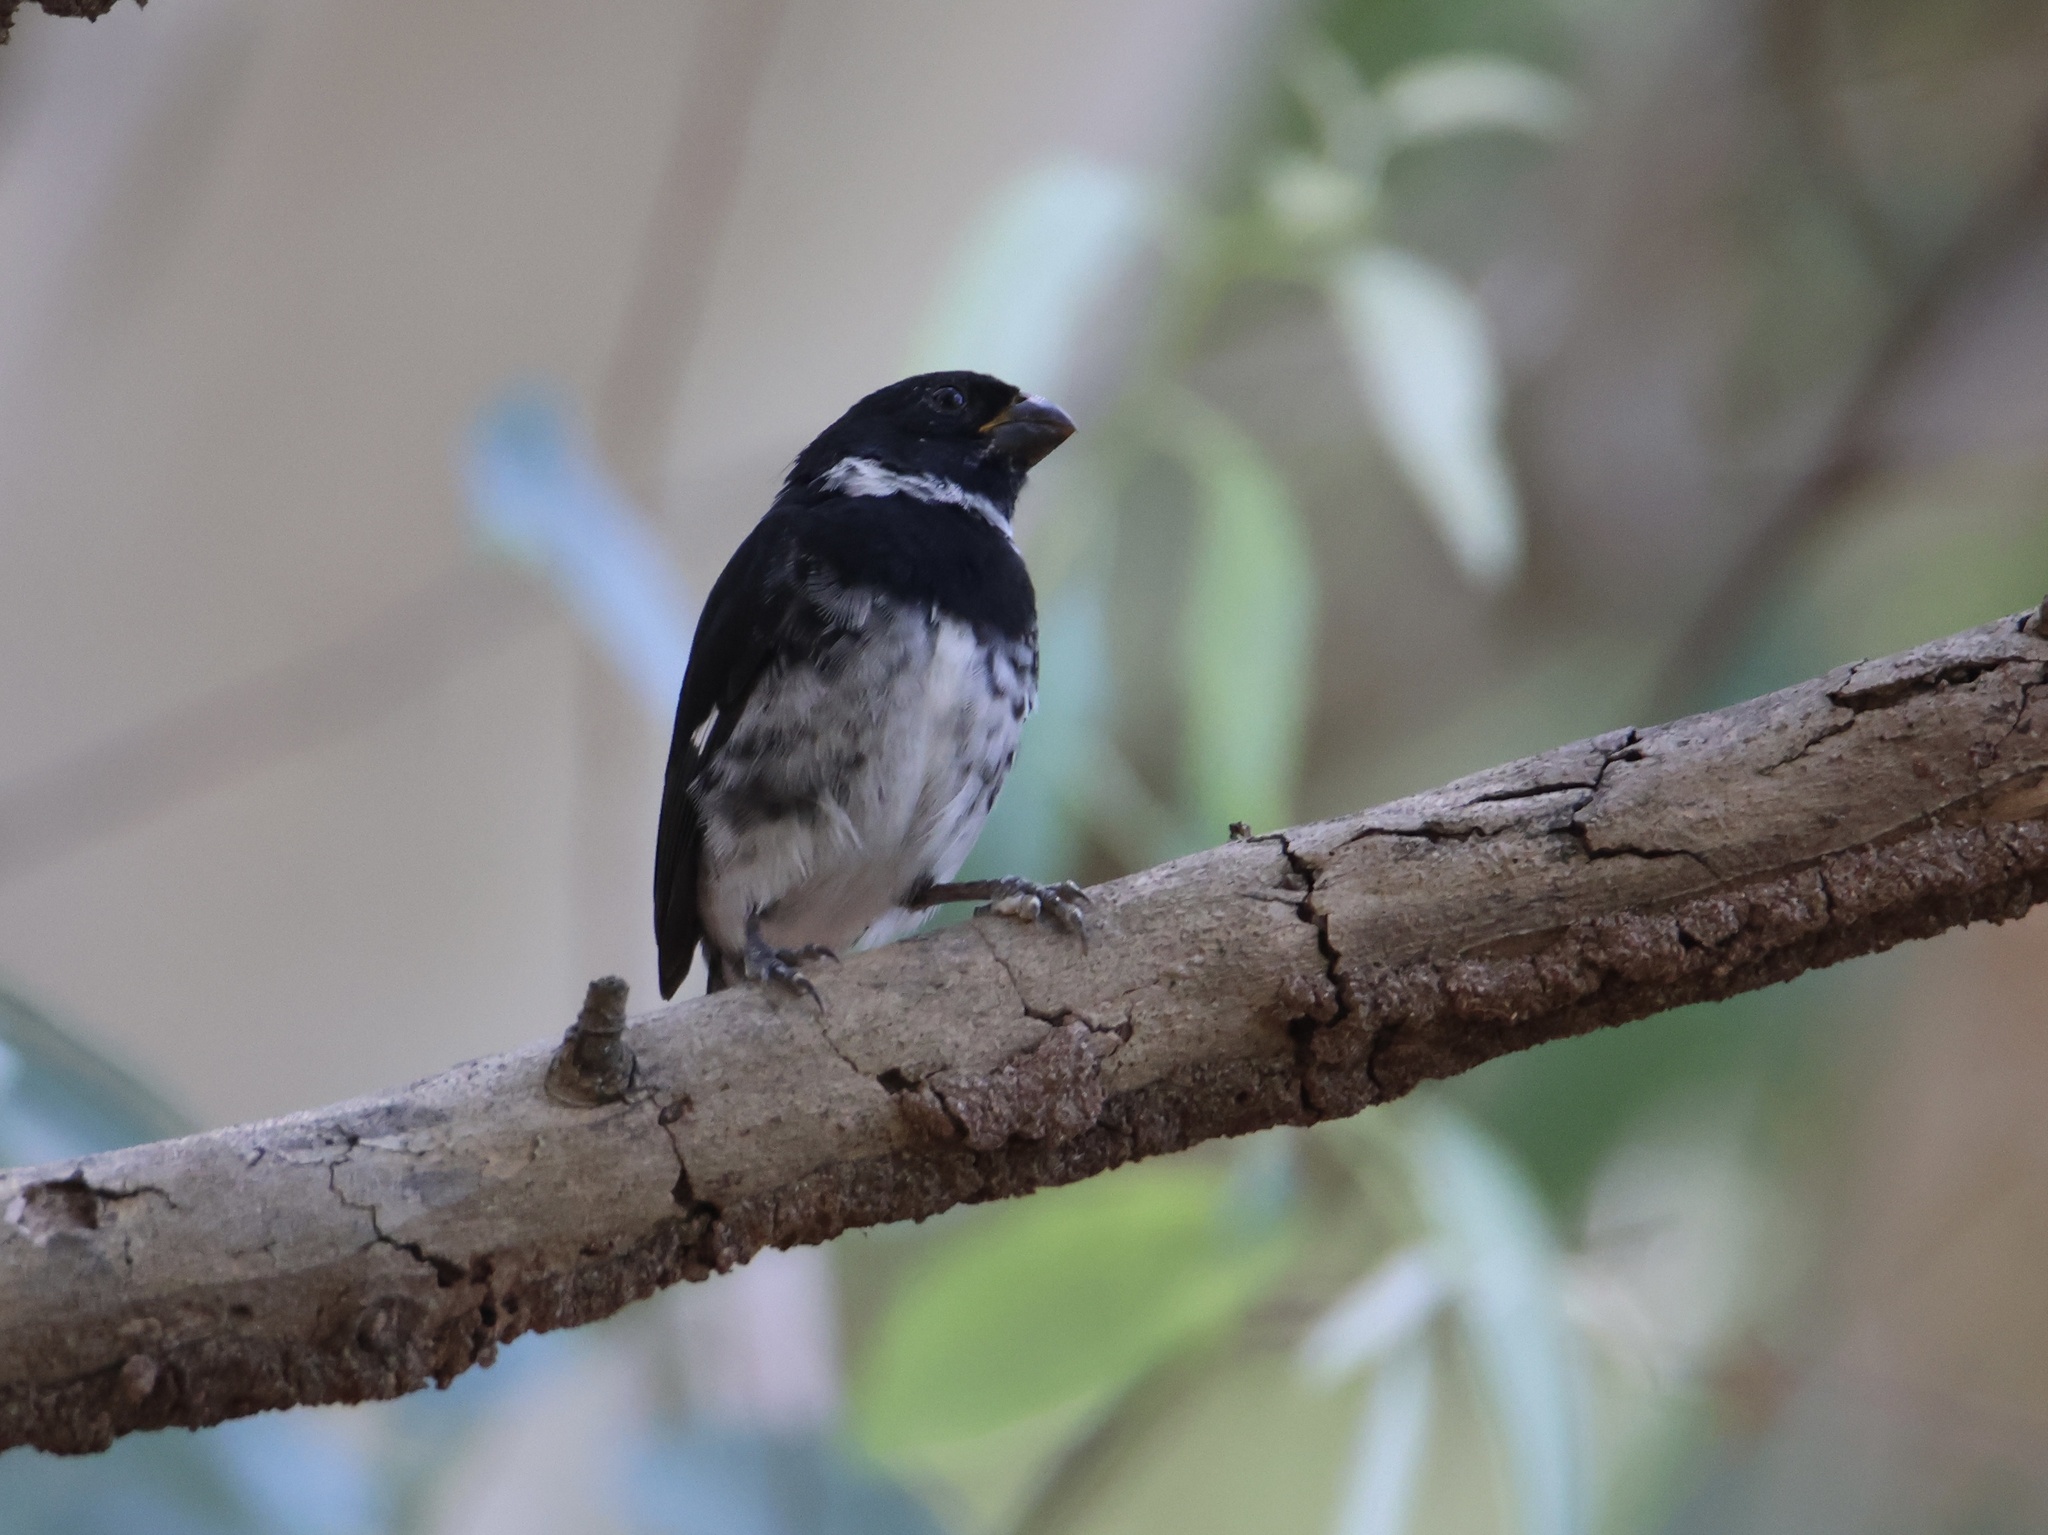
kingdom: Animalia
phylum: Chordata
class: Aves
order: Passeriformes
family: Thraupidae
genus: Sporophila
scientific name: Sporophila corvina
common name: Variable seedeater
